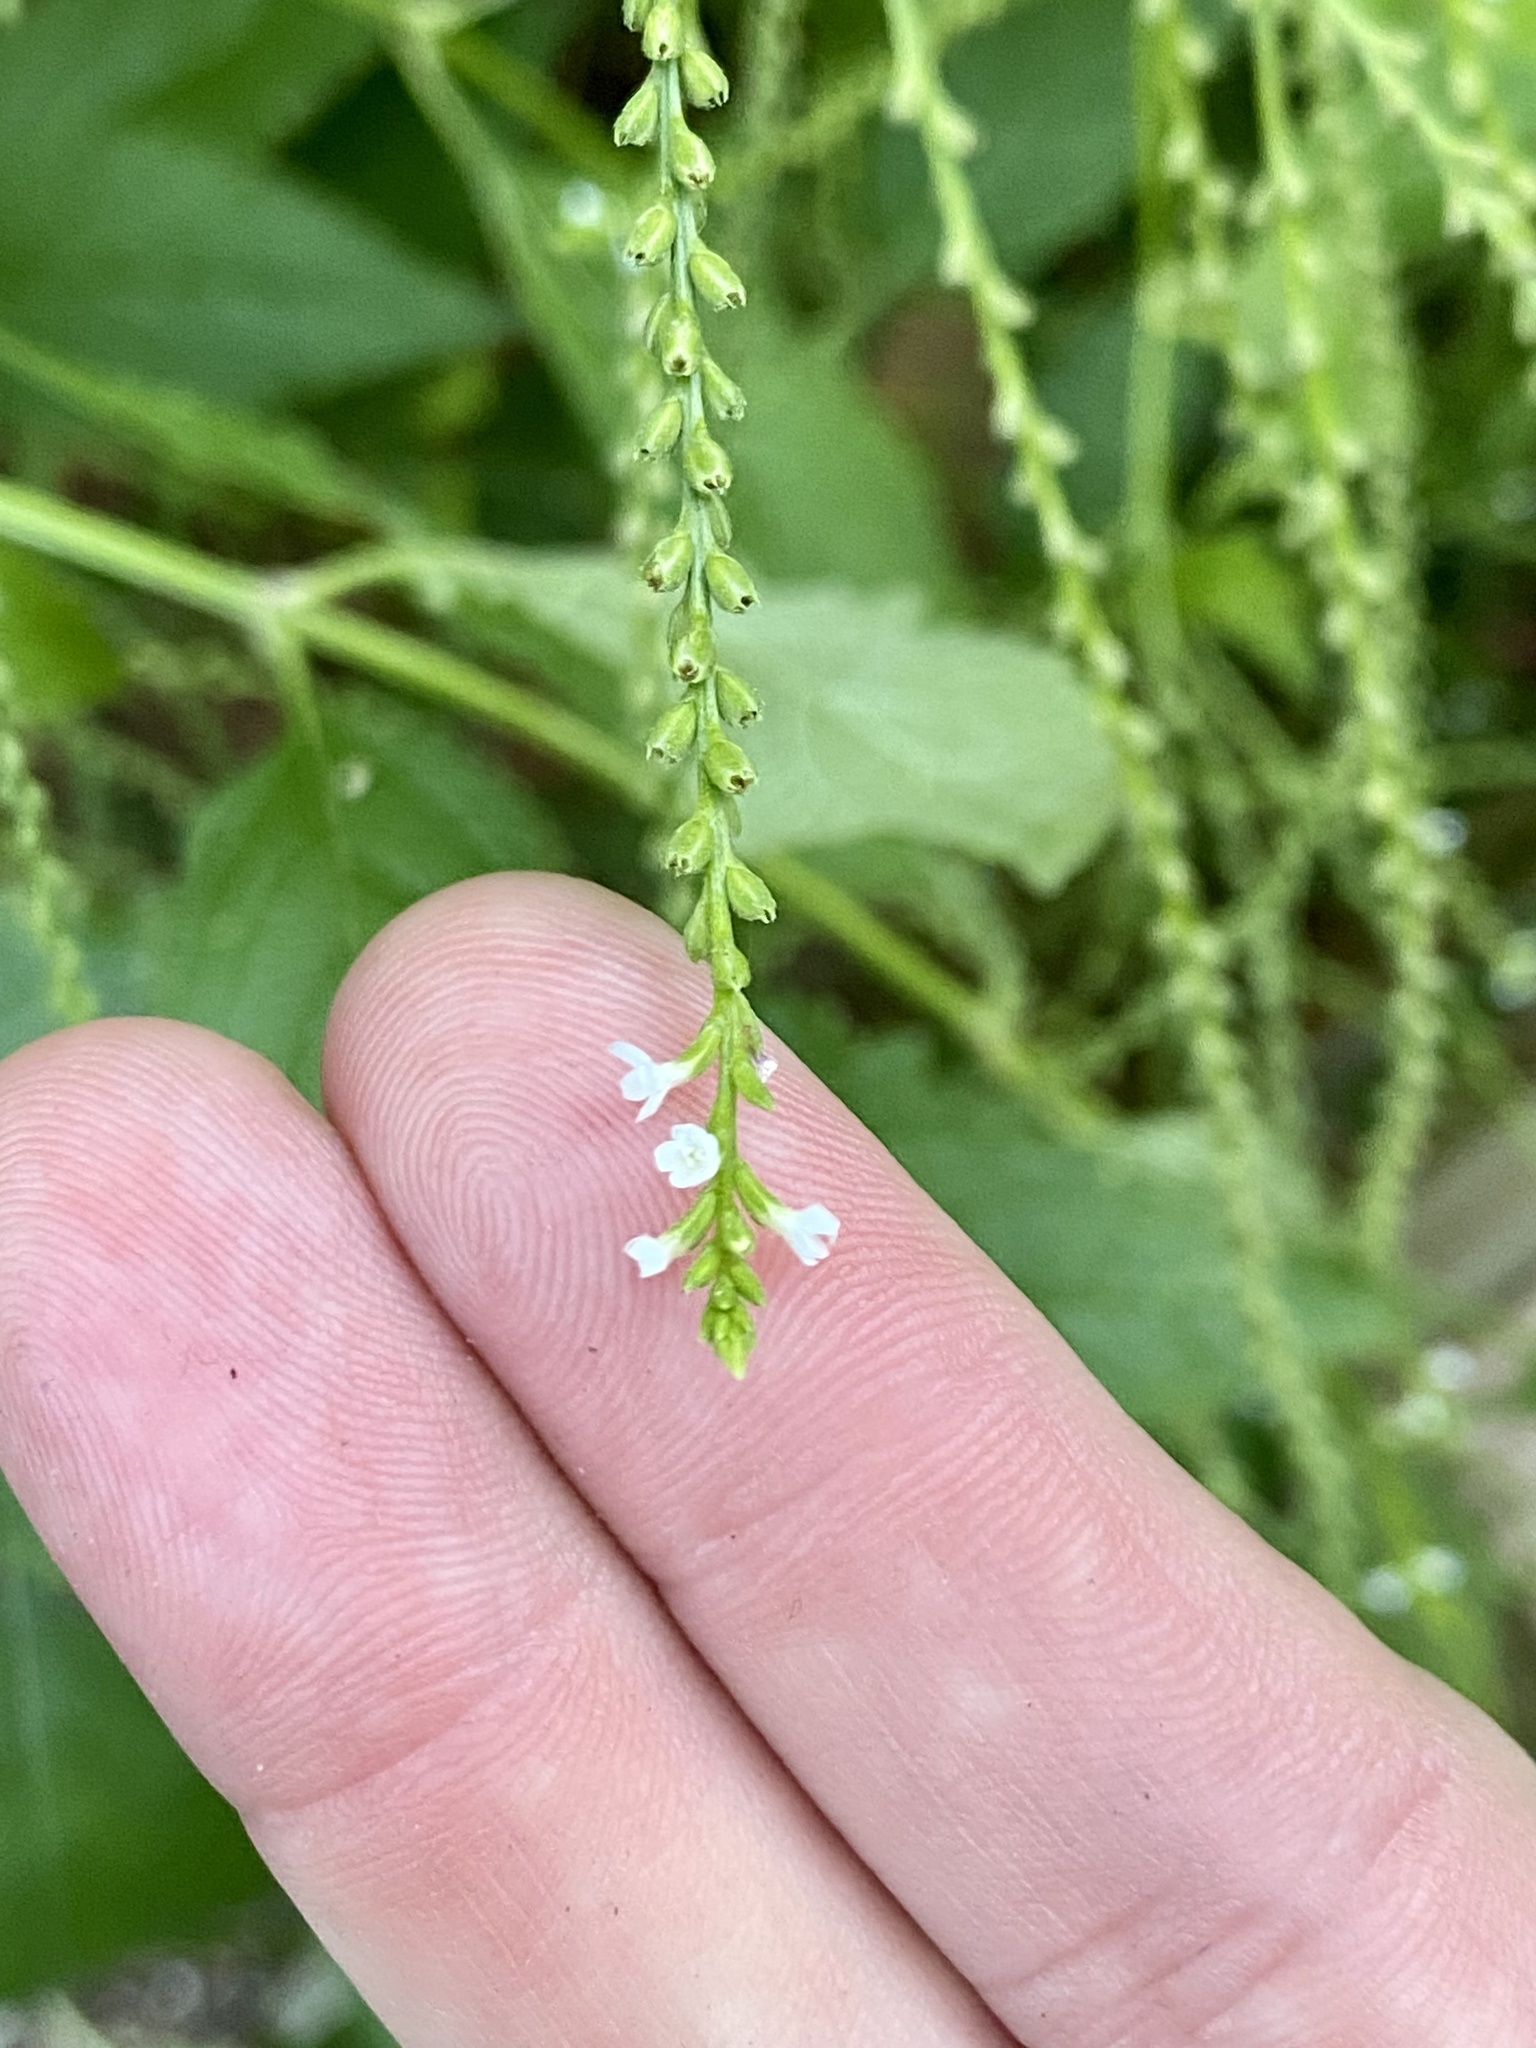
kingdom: Plantae
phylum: Tracheophyta
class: Magnoliopsida
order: Lamiales
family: Verbenaceae
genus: Verbena
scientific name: Verbena urticifolia
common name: Nettle-leaved vervain
